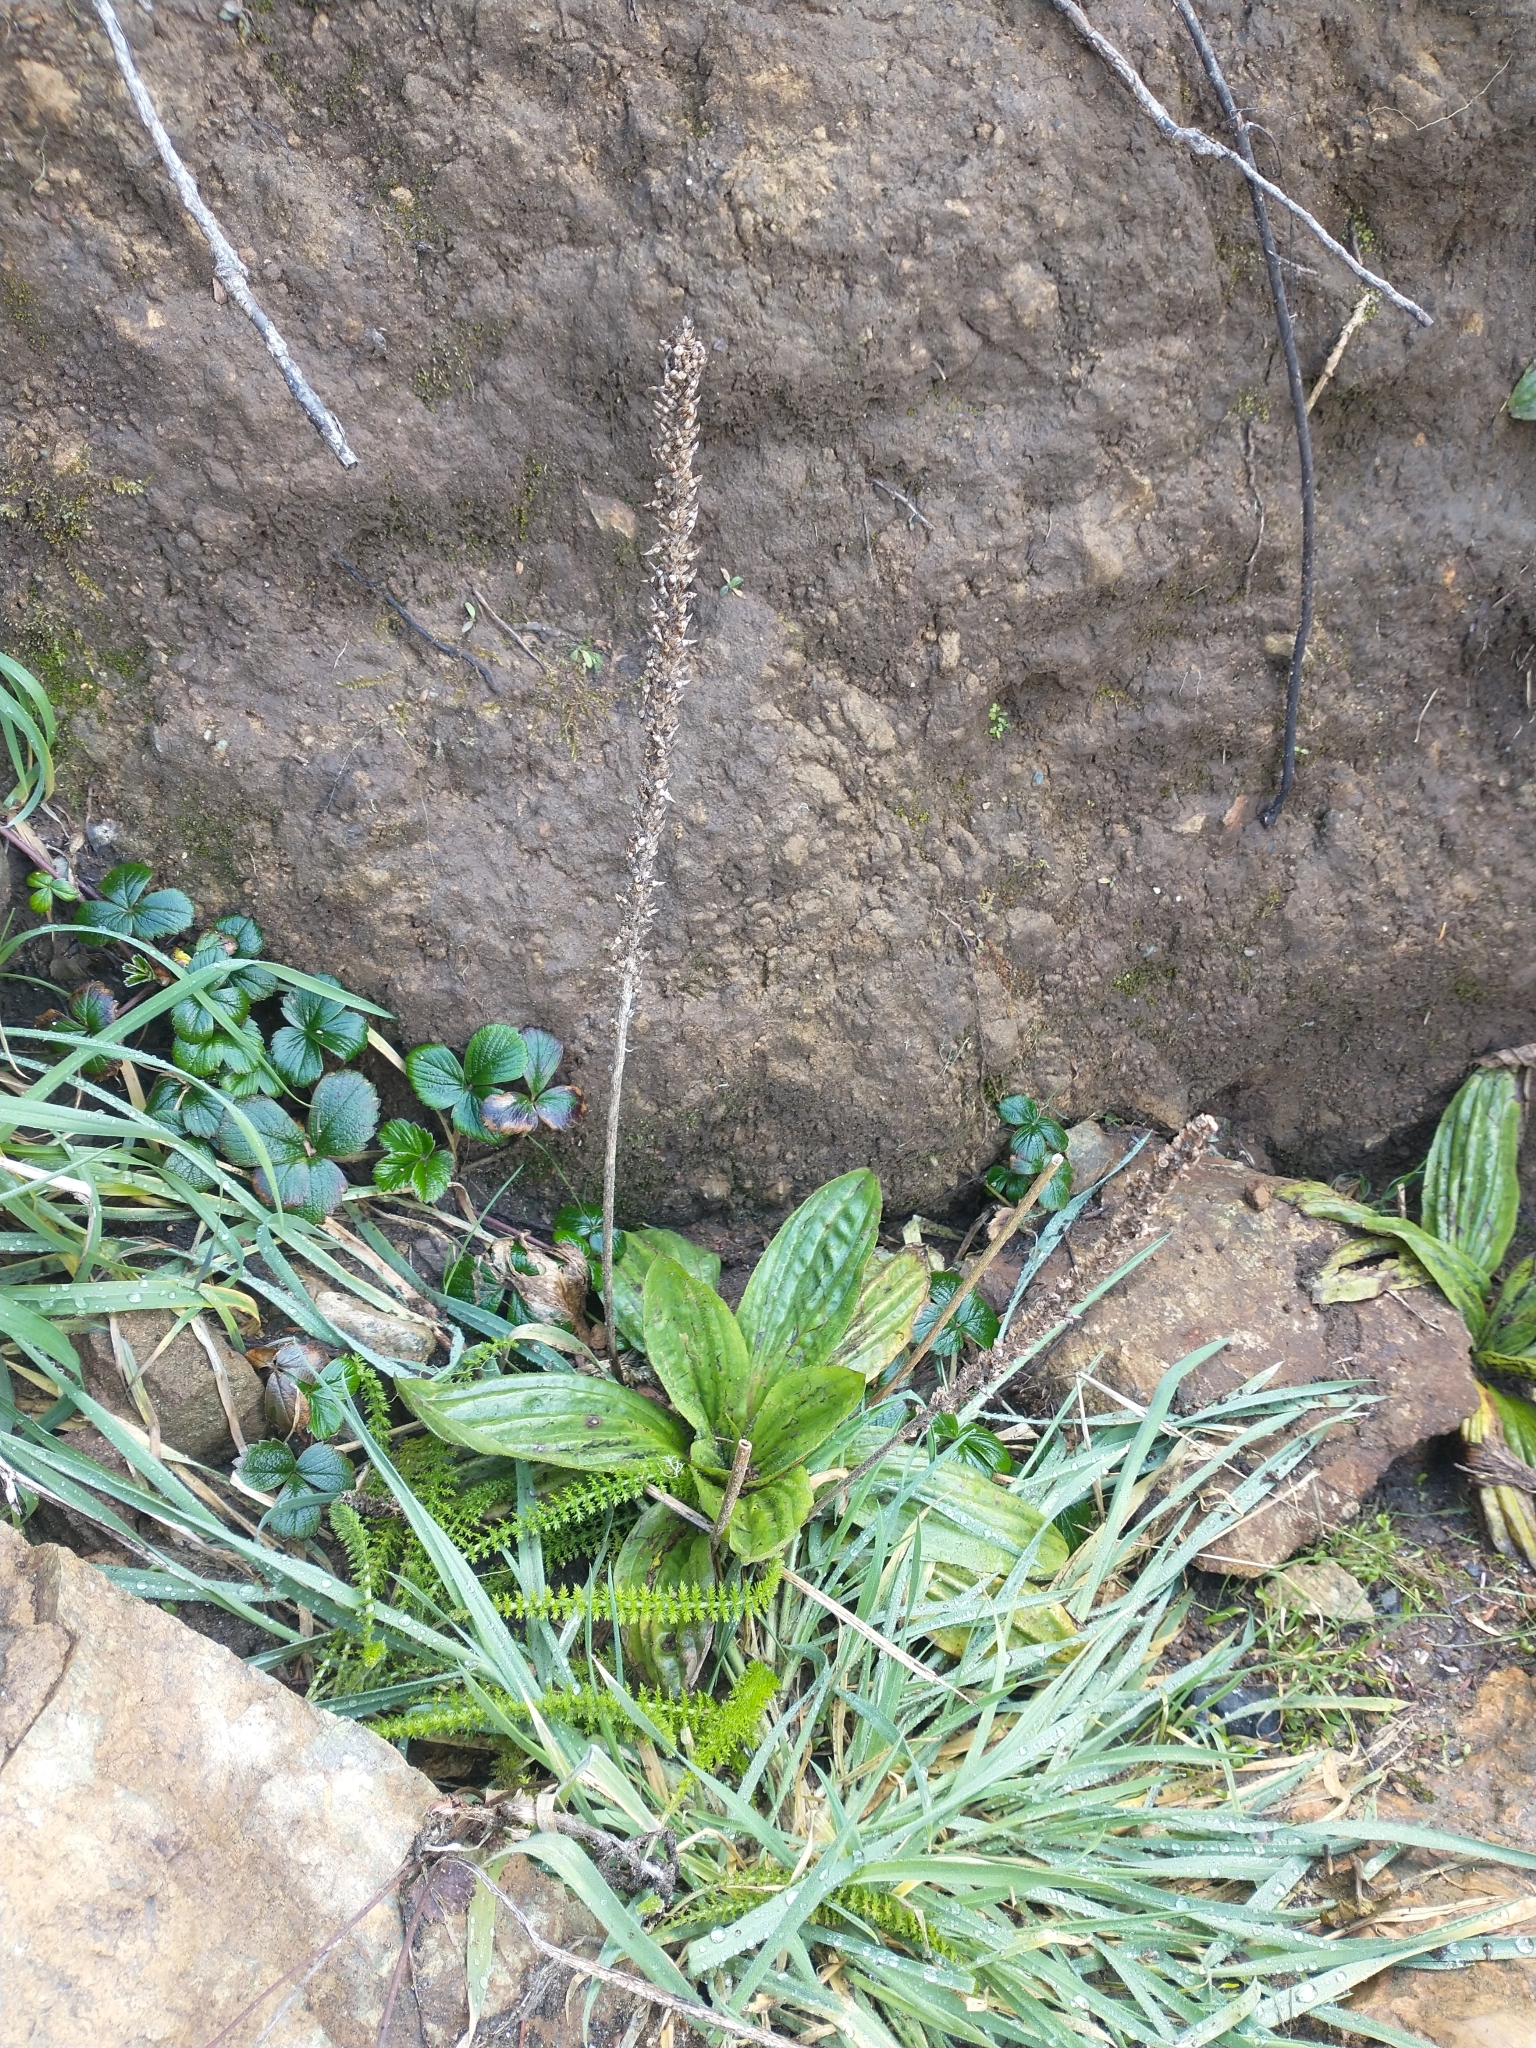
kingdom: Plantae
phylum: Tracheophyta
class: Magnoliopsida
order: Lamiales
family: Plantaginaceae
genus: Plantago
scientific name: Plantago subnuda
